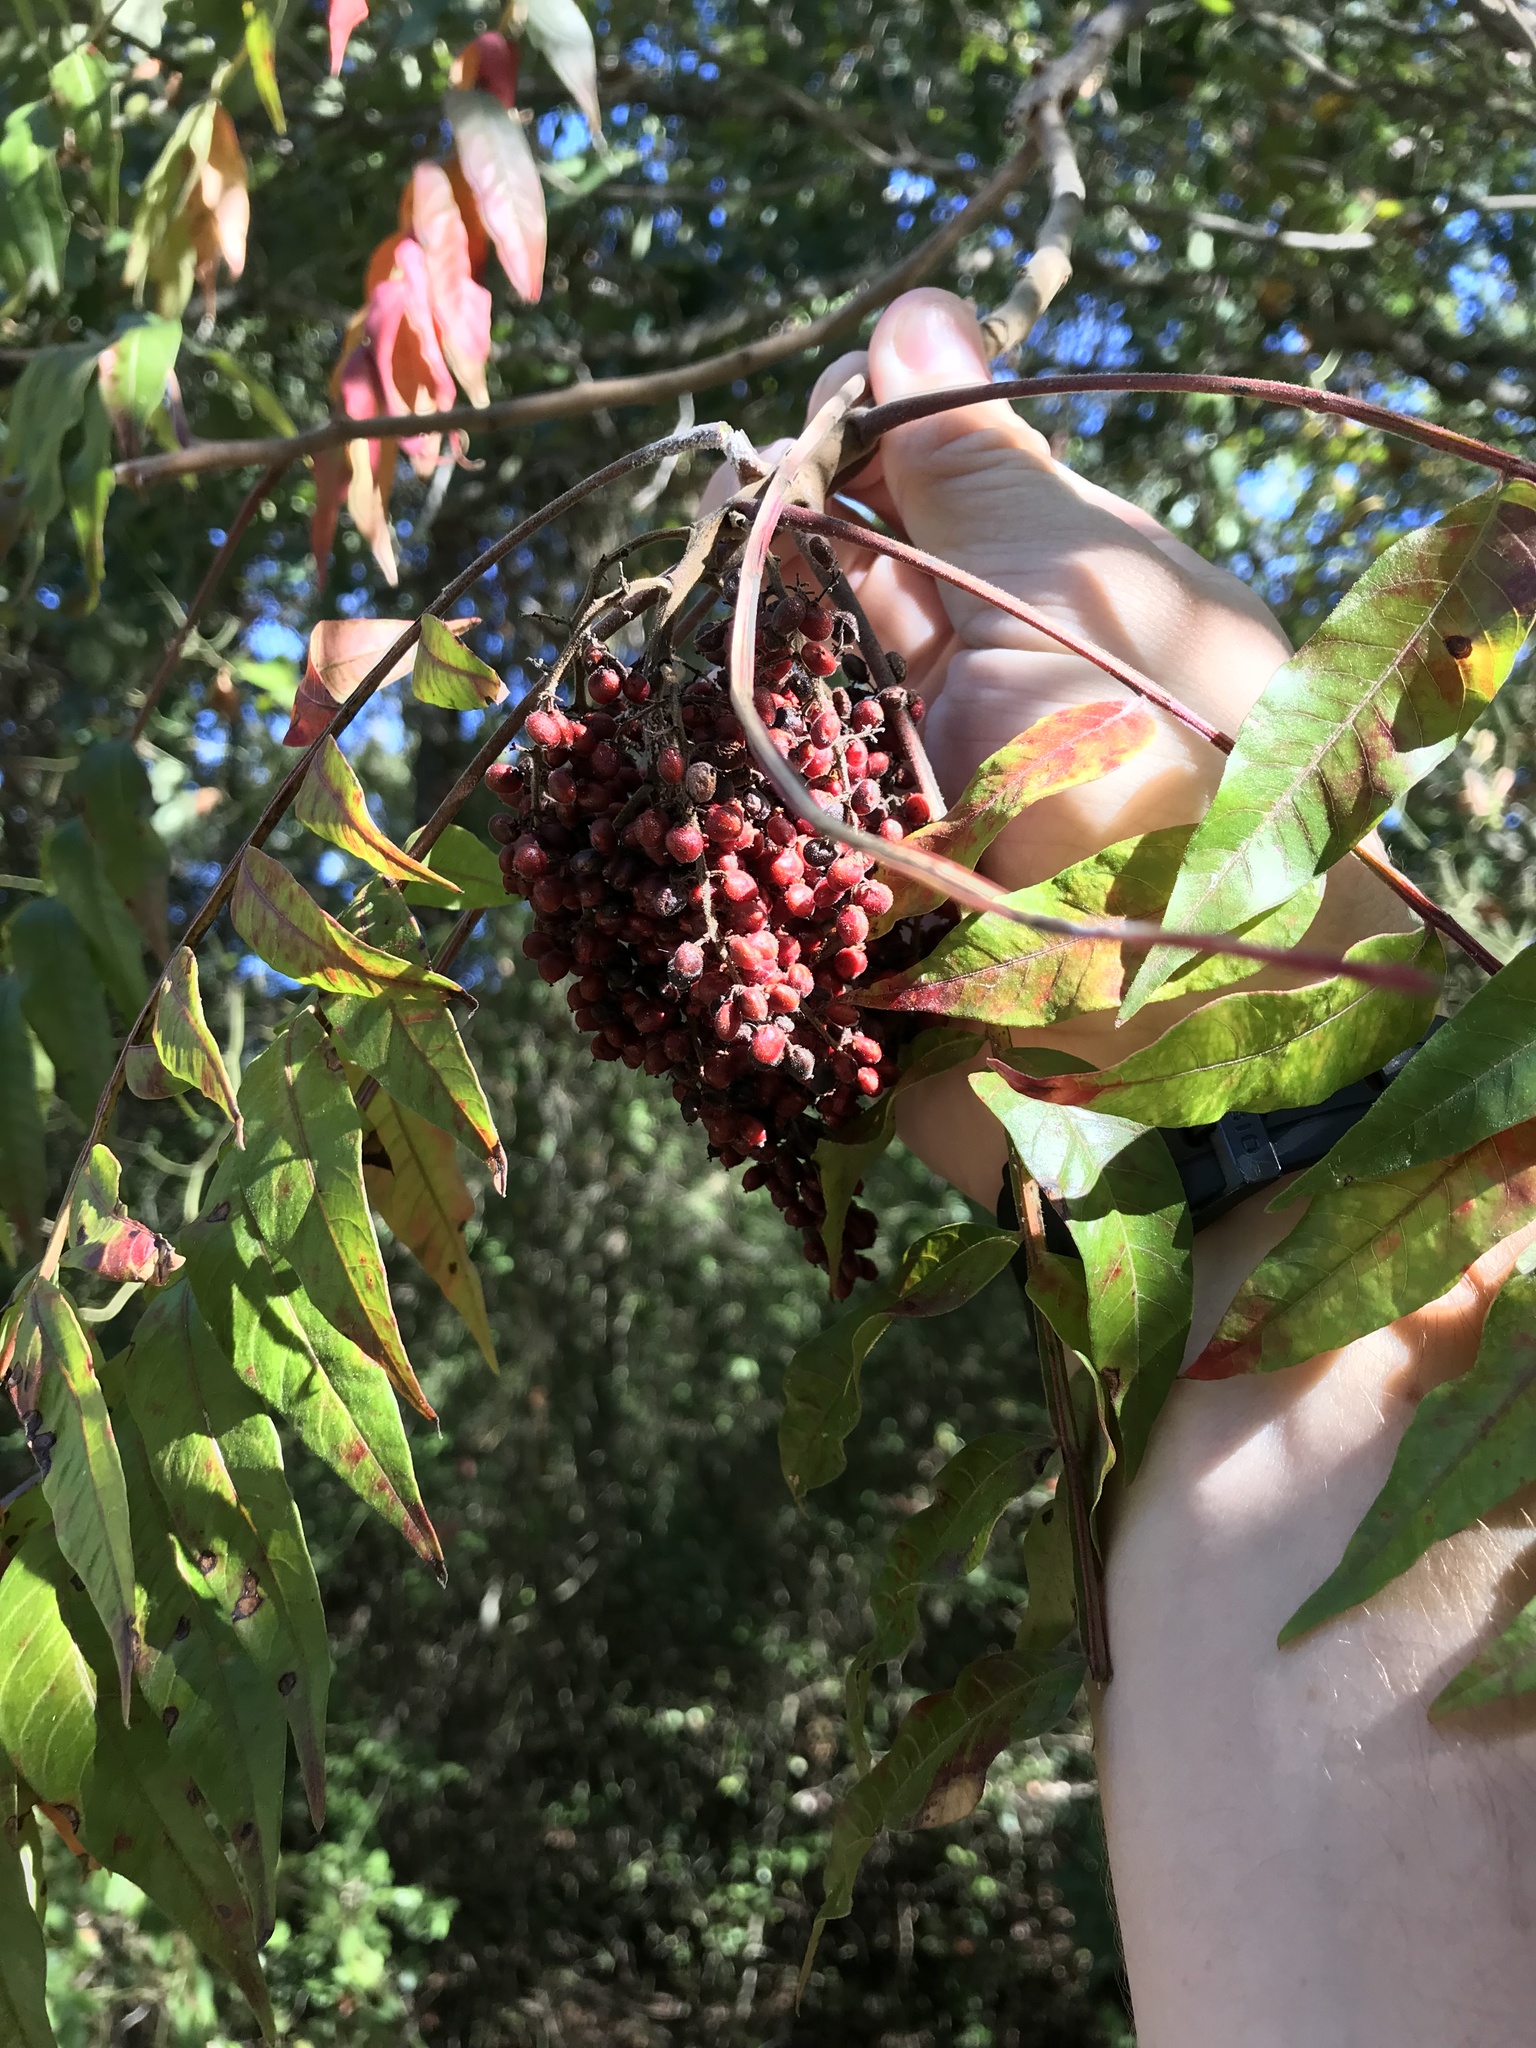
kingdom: Plantae
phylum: Tracheophyta
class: Magnoliopsida
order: Sapindales
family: Anacardiaceae
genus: Rhus
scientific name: Rhus copallina
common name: Shining sumac
